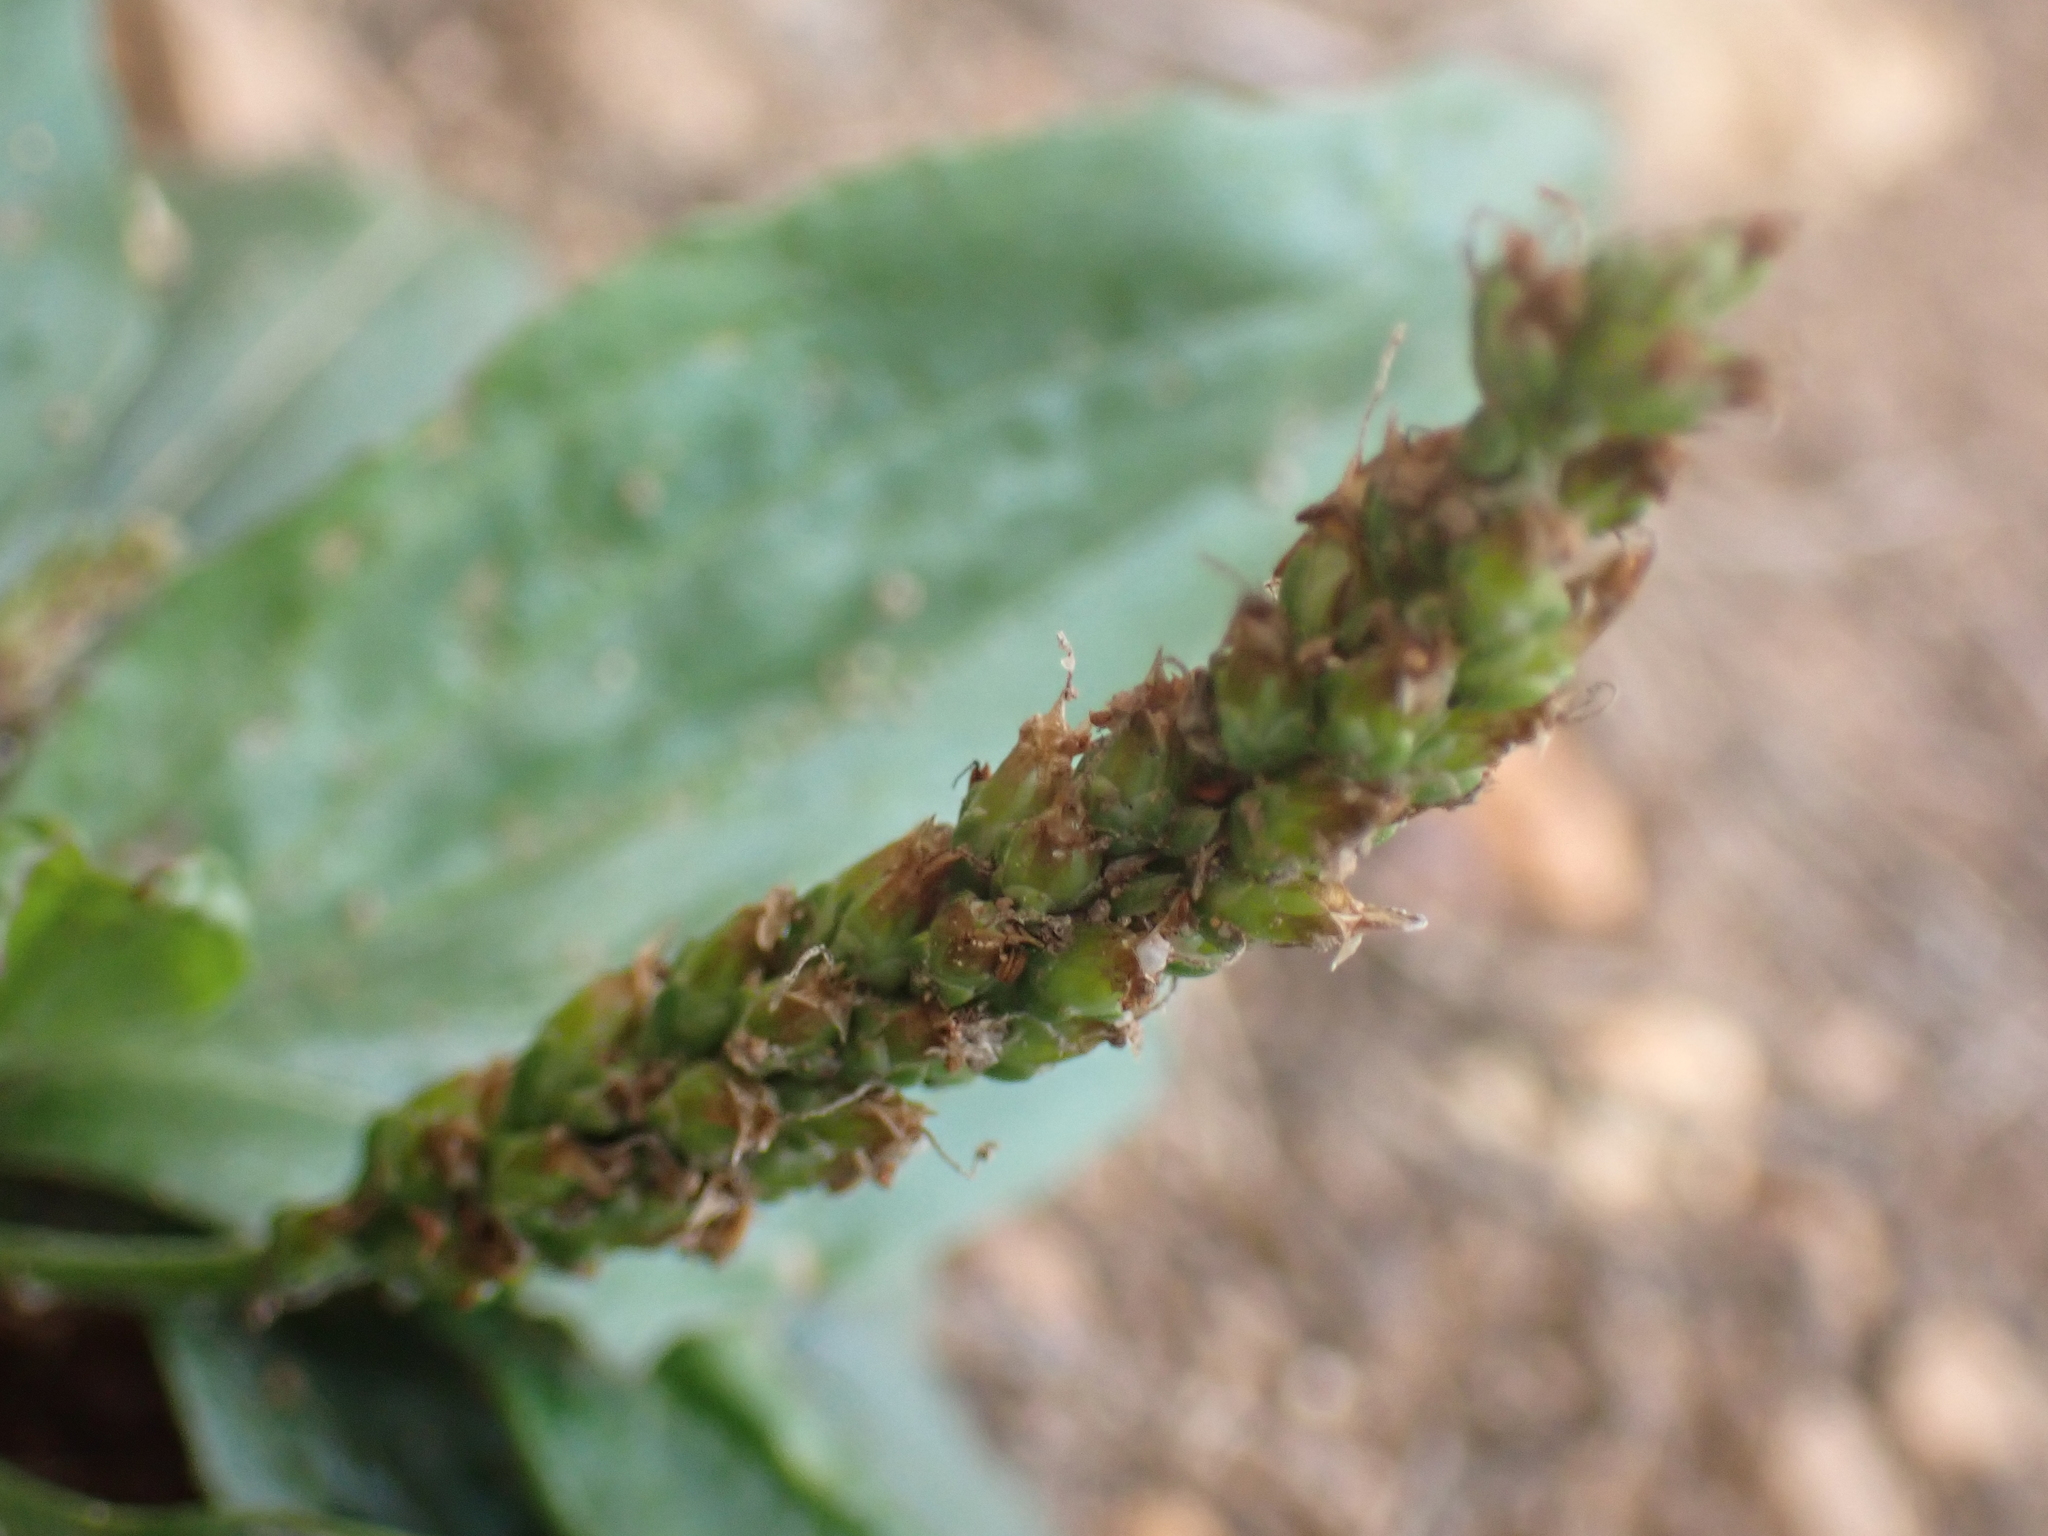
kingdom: Plantae
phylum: Tracheophyta
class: Magnoliopsida
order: Lamiales
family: Plantaginaceae
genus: Plantago
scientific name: Plantago rugelii
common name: American plantain
